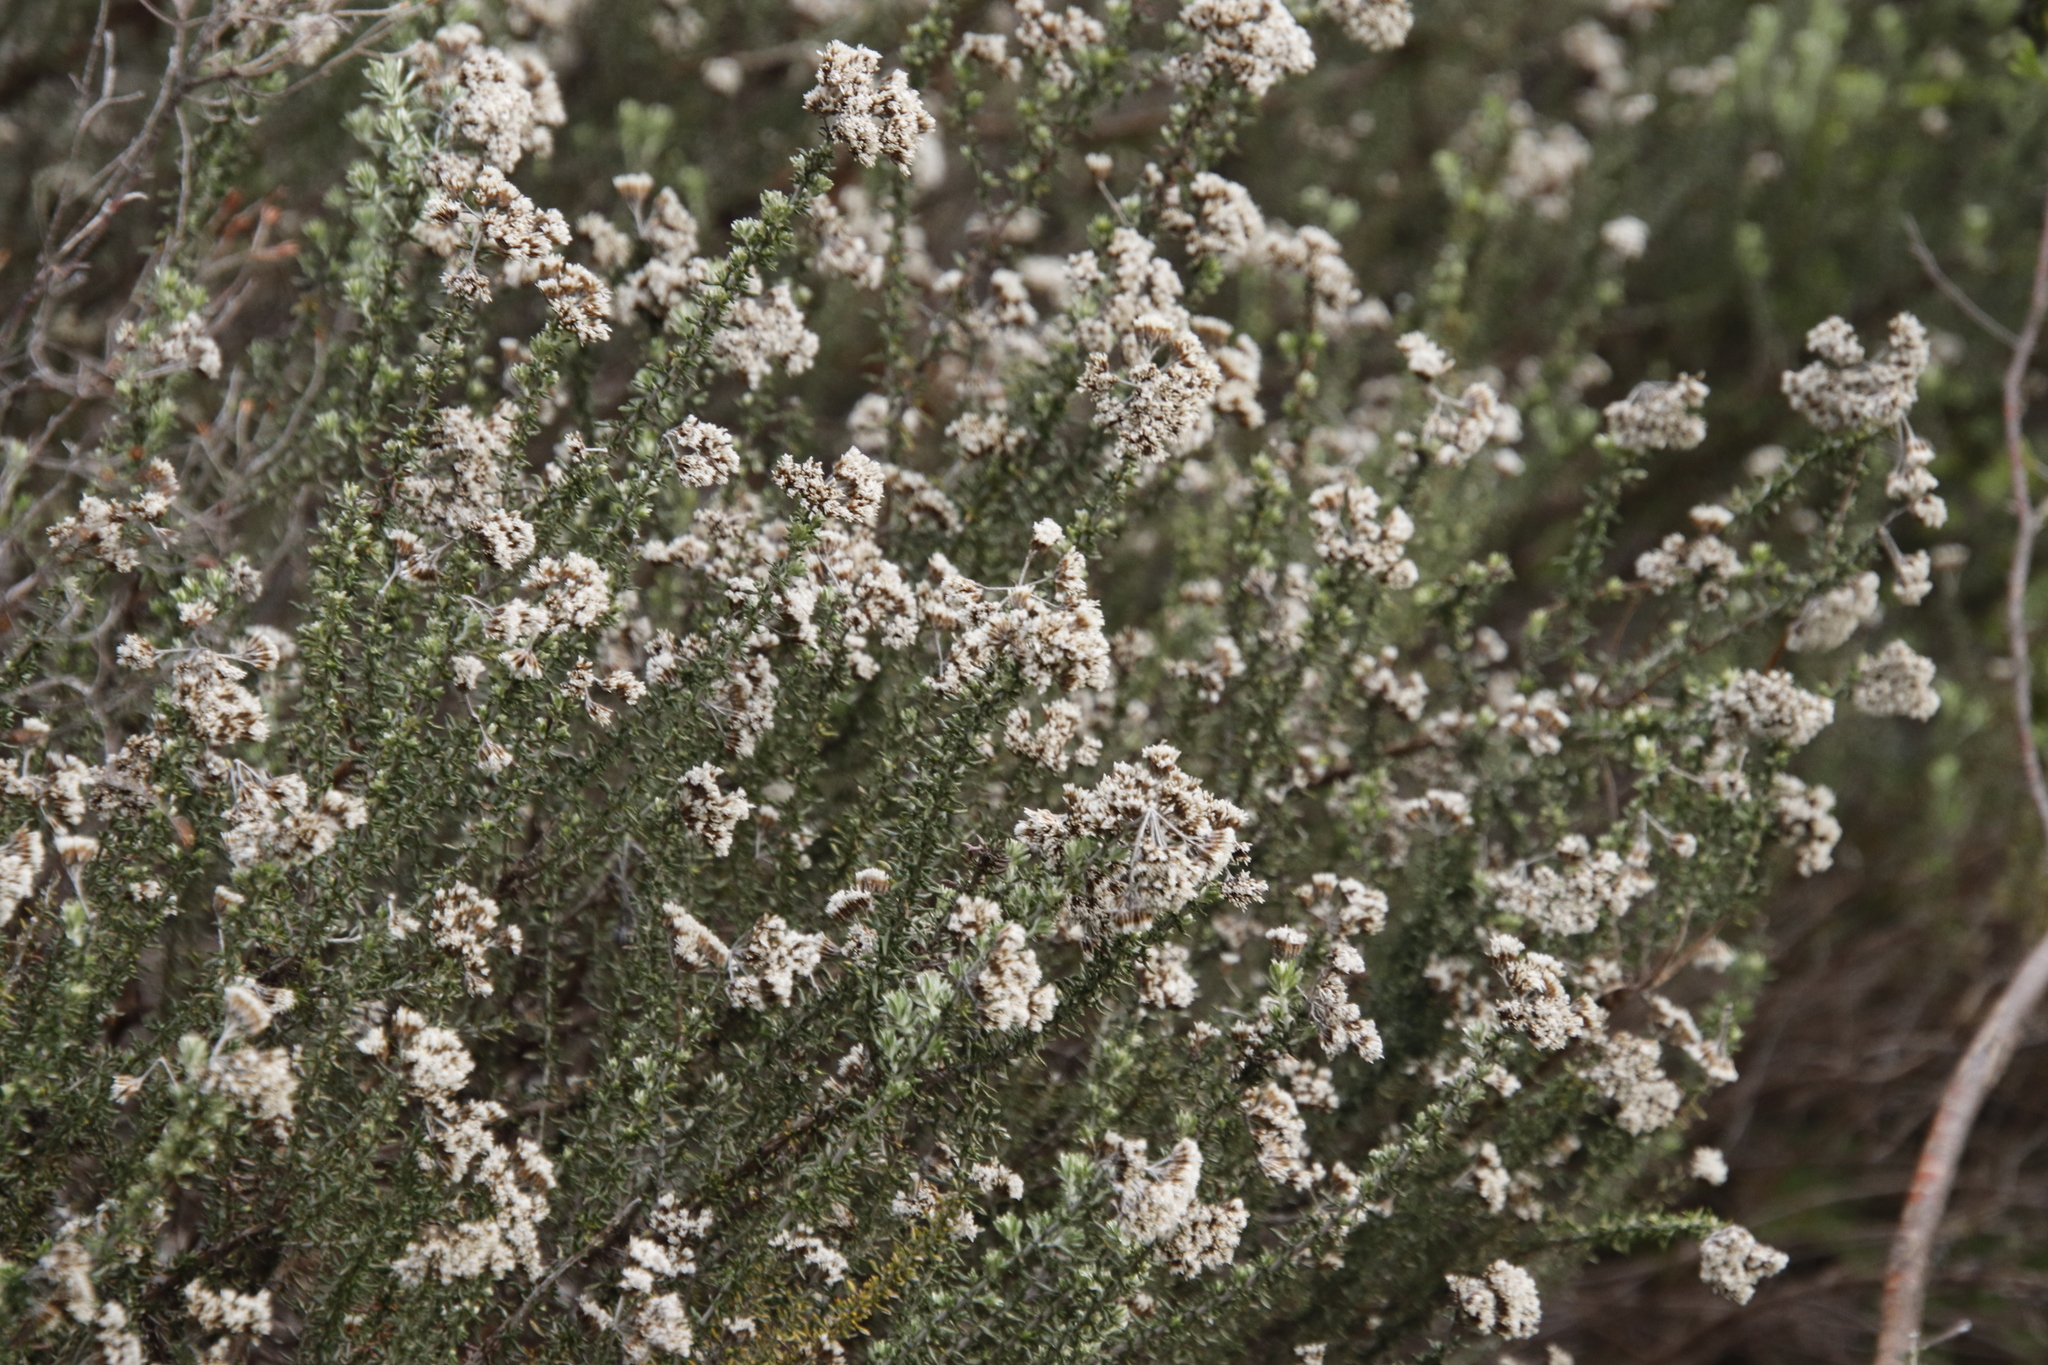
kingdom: Plantae
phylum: Tracheophyta
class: Magnoliopsida
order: Asterales
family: Asteraceae
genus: Metalasia
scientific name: Metalasia densa
